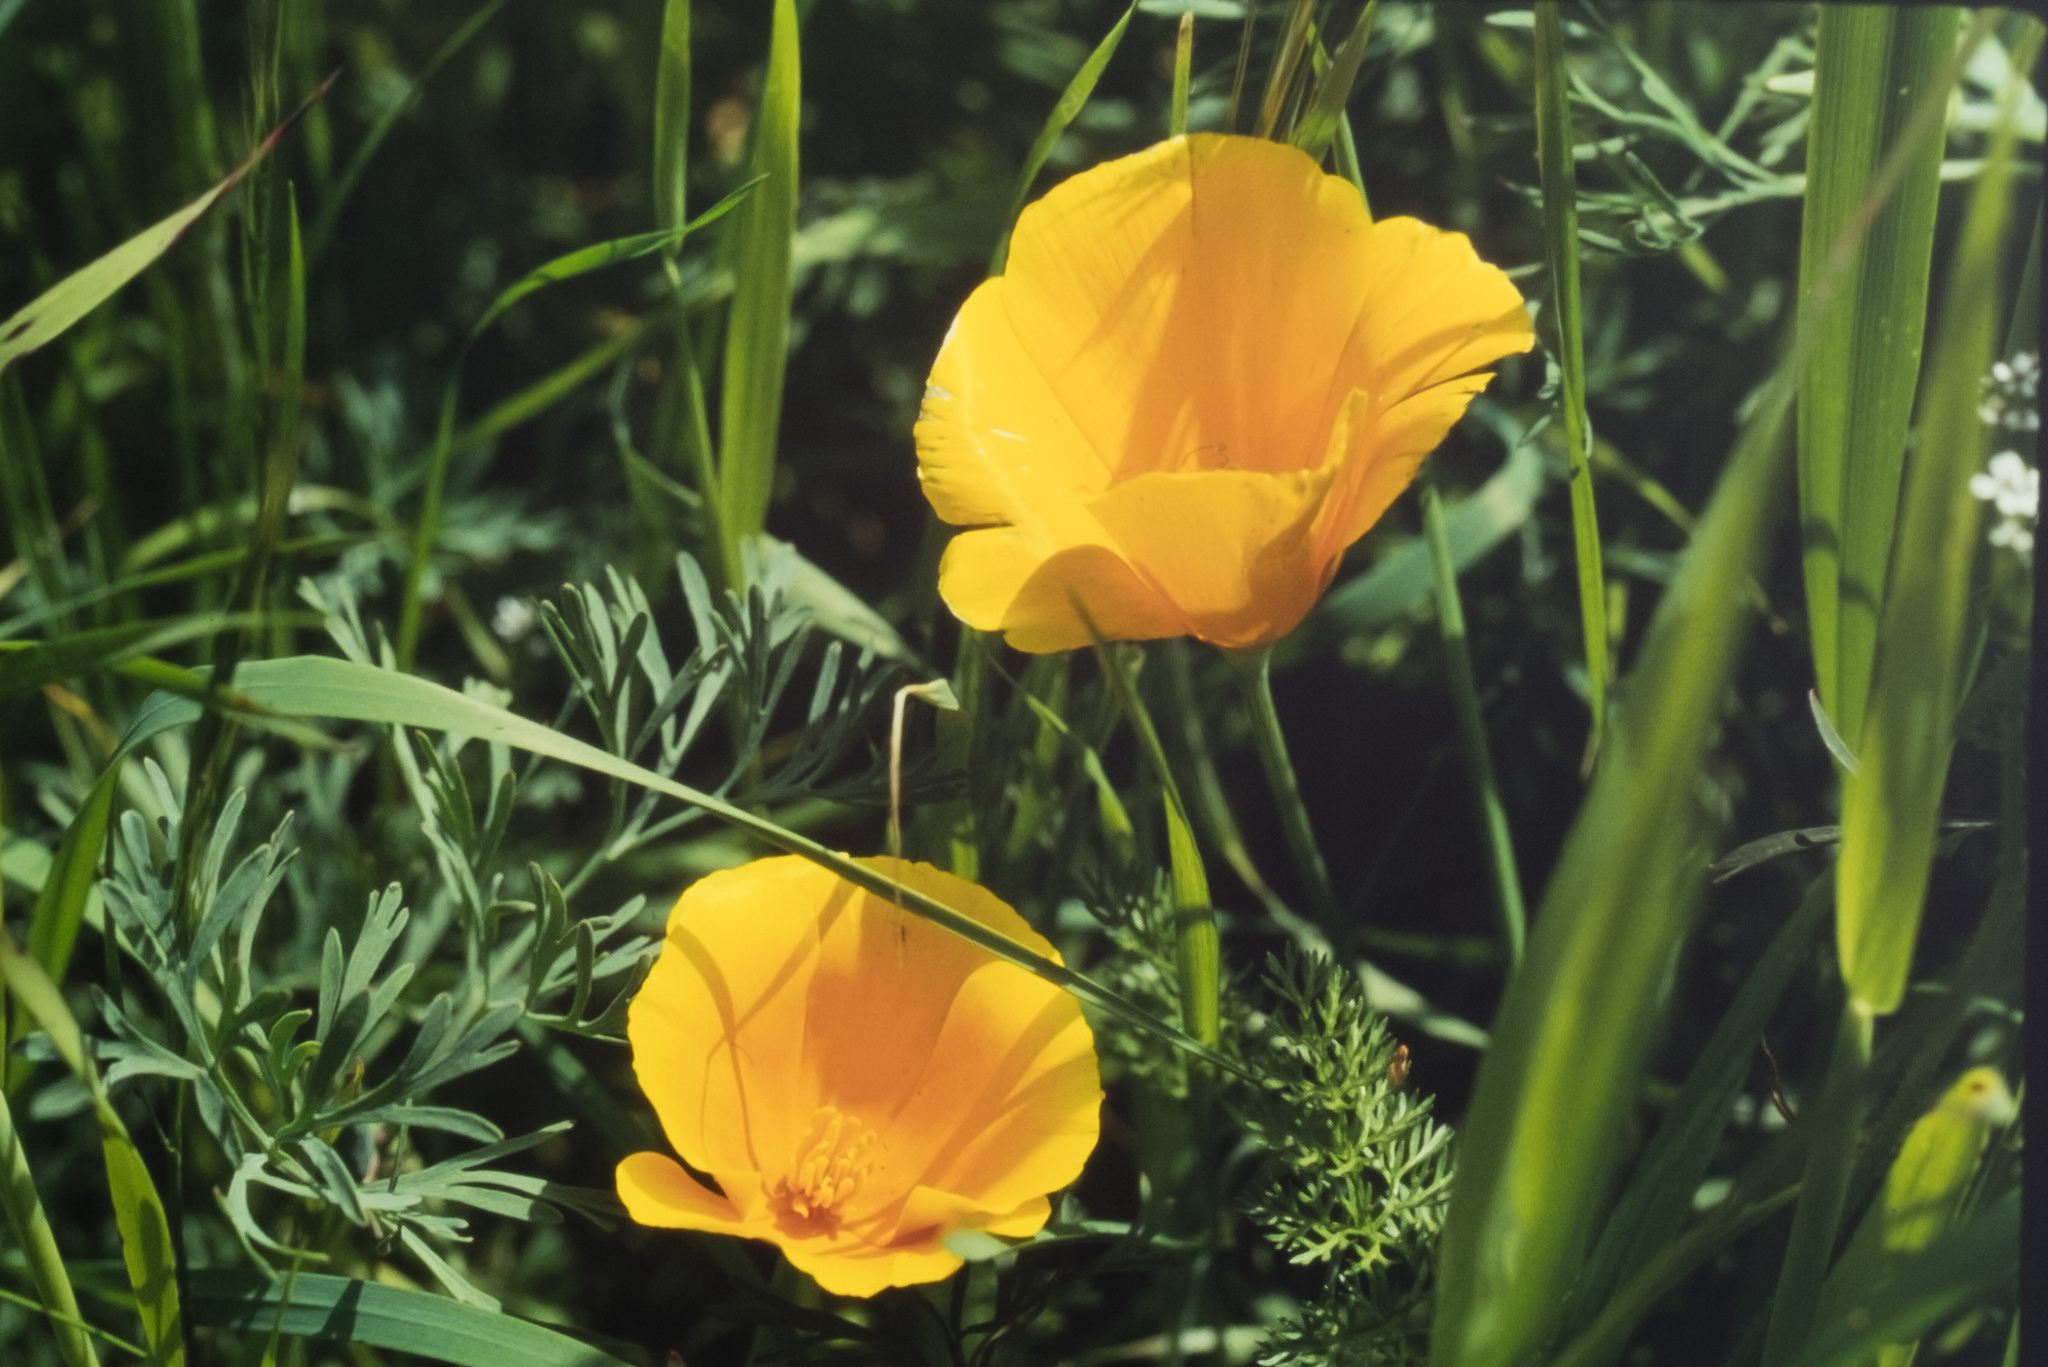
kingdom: Plantae
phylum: Tracheophyta
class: Magnoliopsida
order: Ranunculales
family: Papaveraceae
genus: Eschscholzia
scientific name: Eschscholzia californica
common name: California poppy
